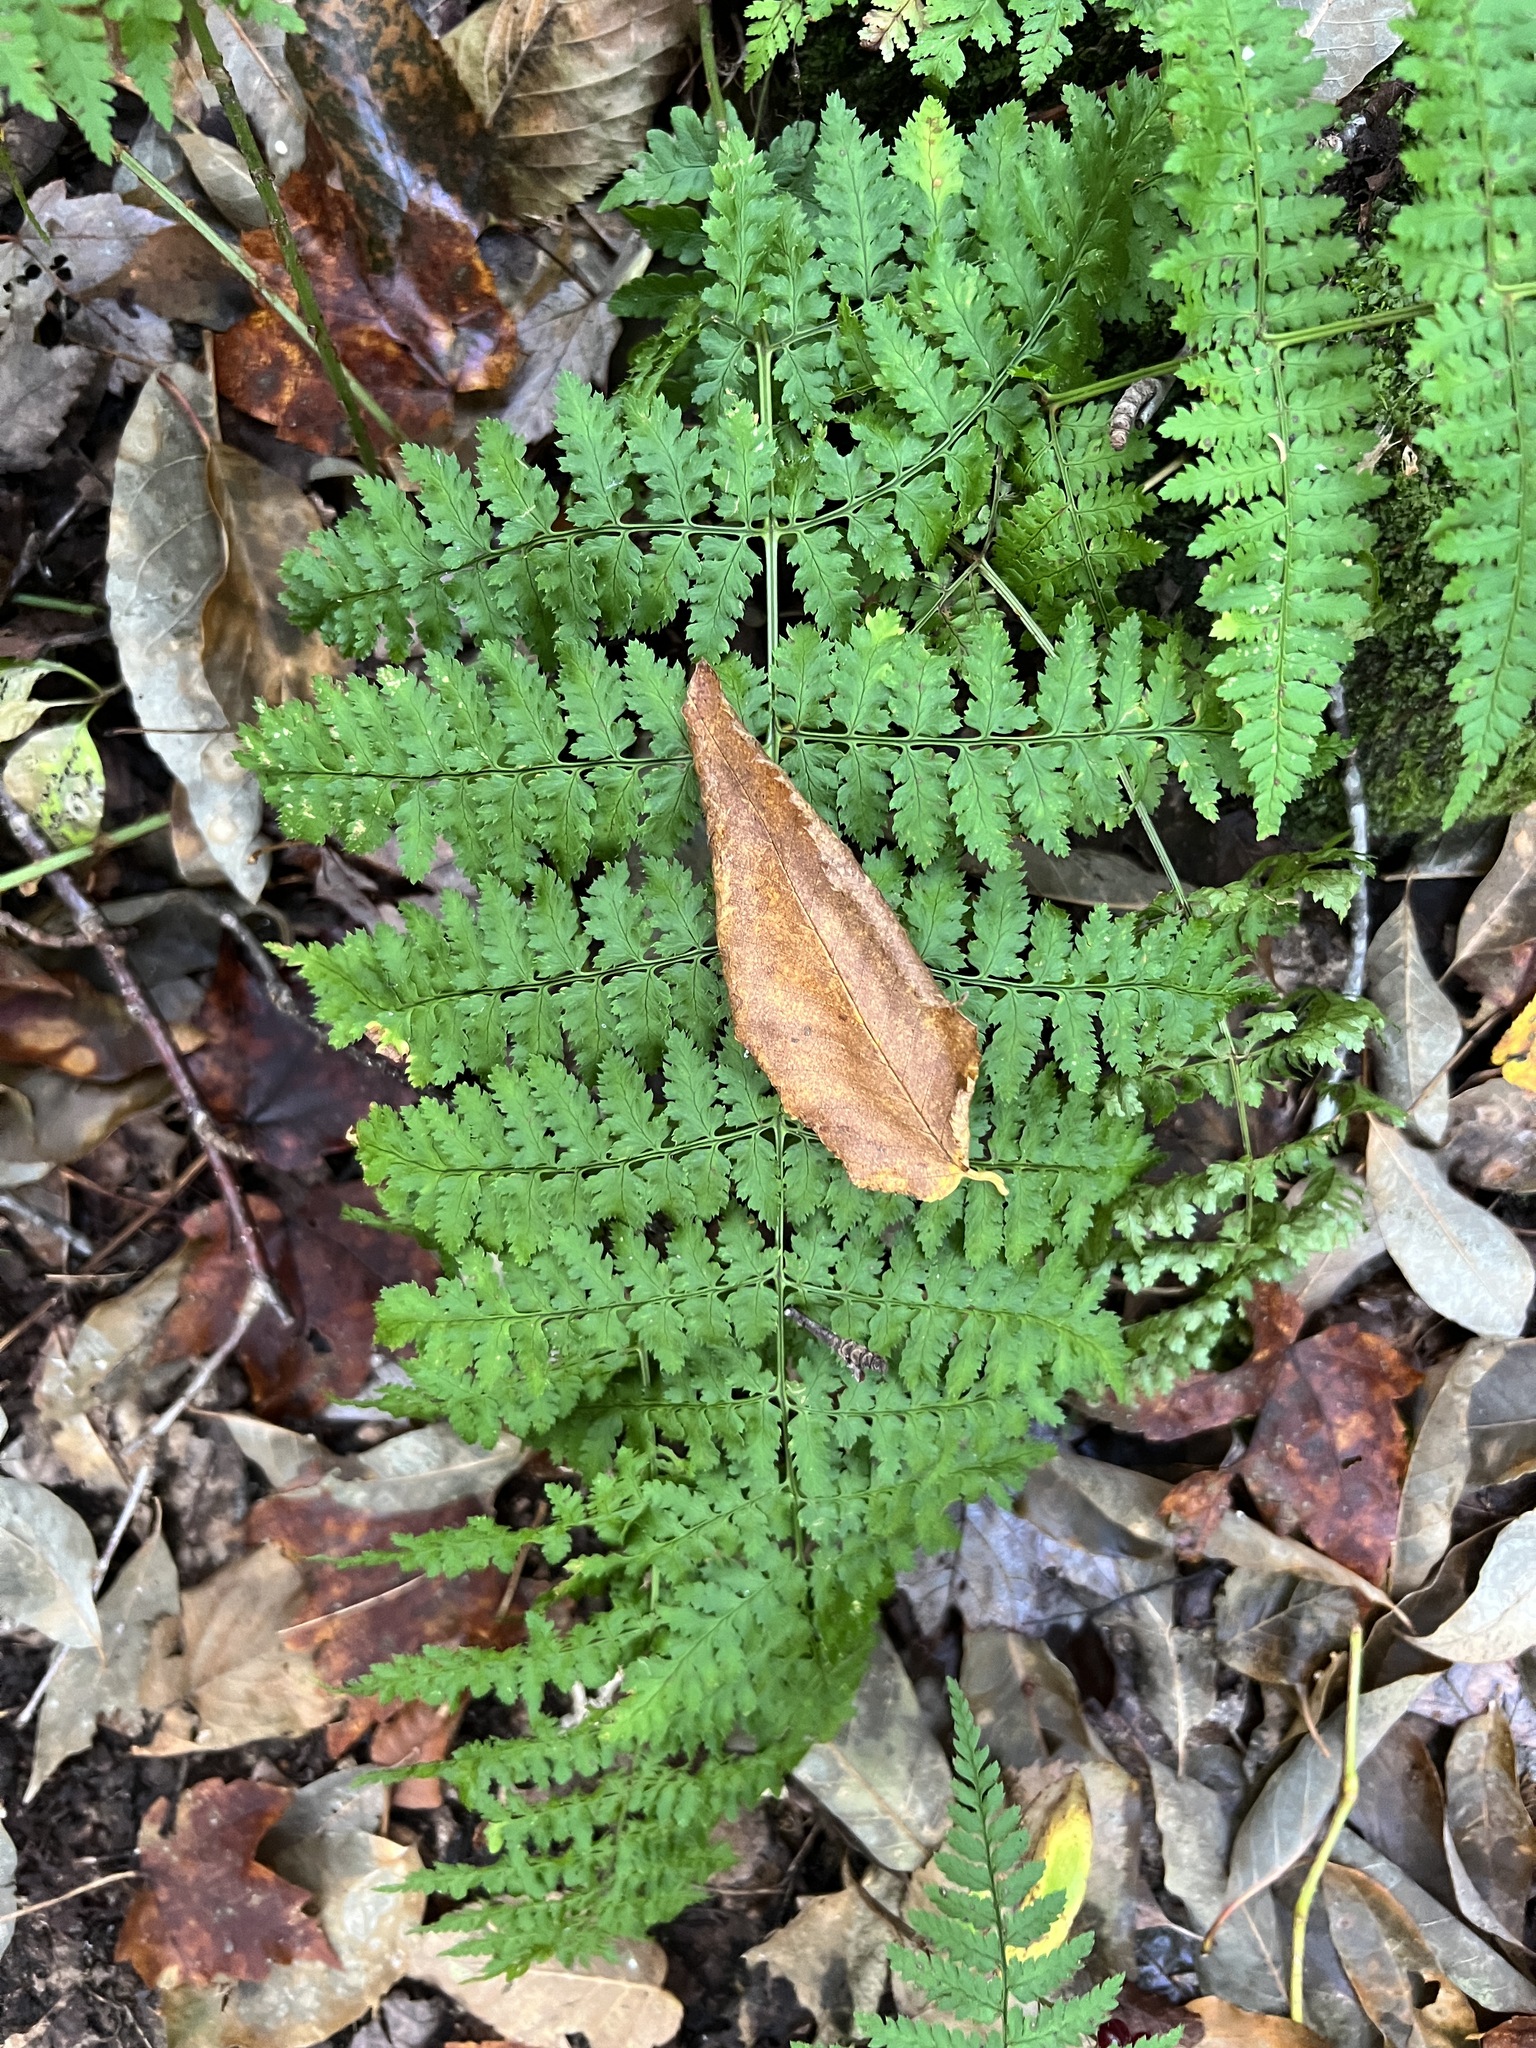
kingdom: Plantae
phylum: Tracheophyta
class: Polypodiopsida
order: Polypodiales
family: Dryopteridaceae
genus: Dryopteris
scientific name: Dryopteris intermedia
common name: Evergreen wood fern
